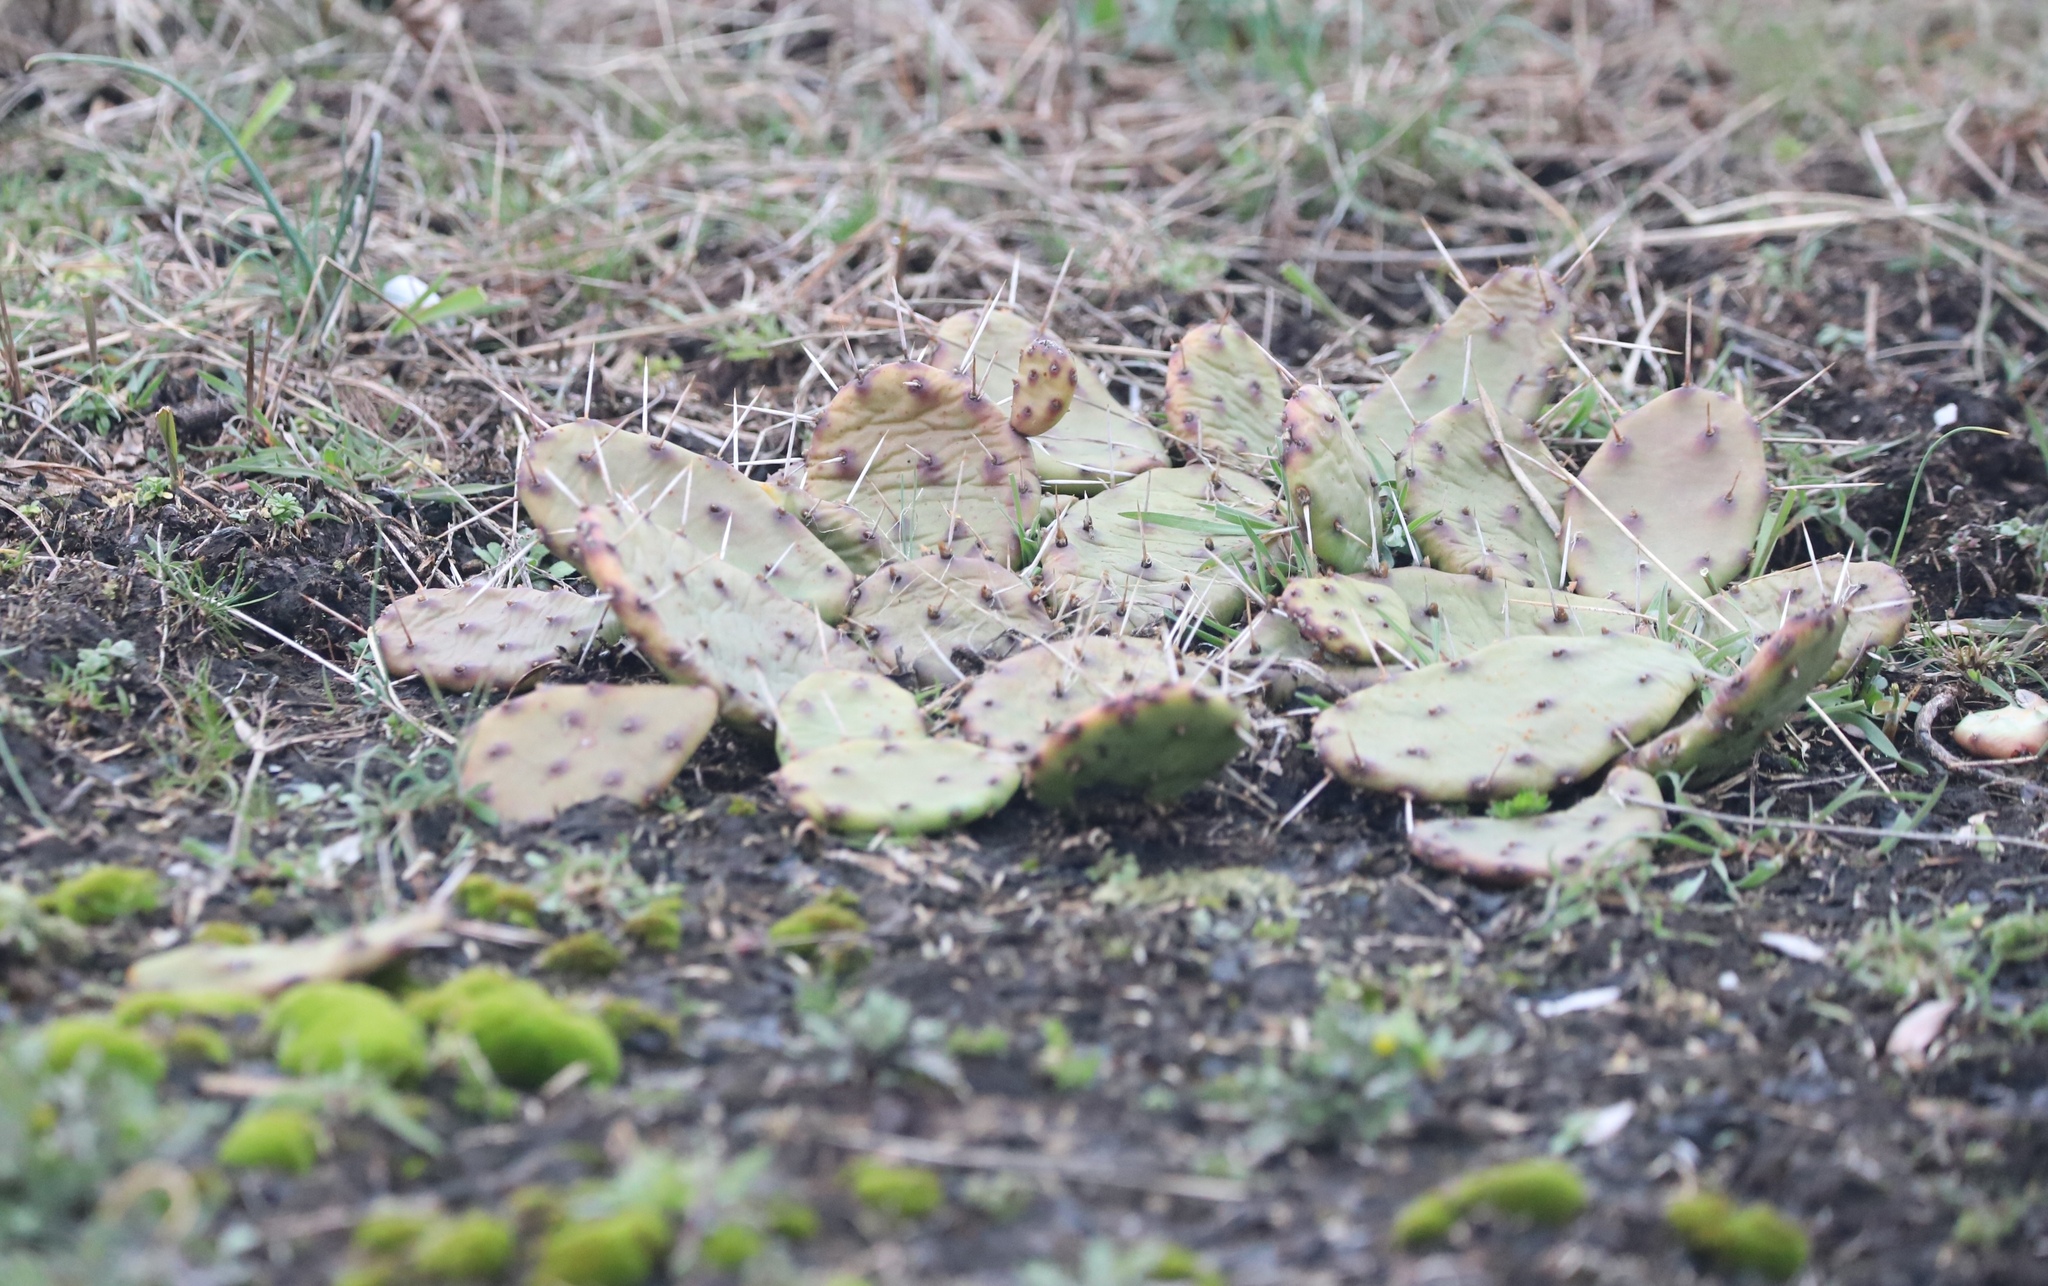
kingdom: Plantae
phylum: Tracheophyta
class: Magnoliopsida
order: Caryophyllales
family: Cactaceae
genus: Opuntia
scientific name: Opuntia humifusa
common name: Eastern prickly-pear
